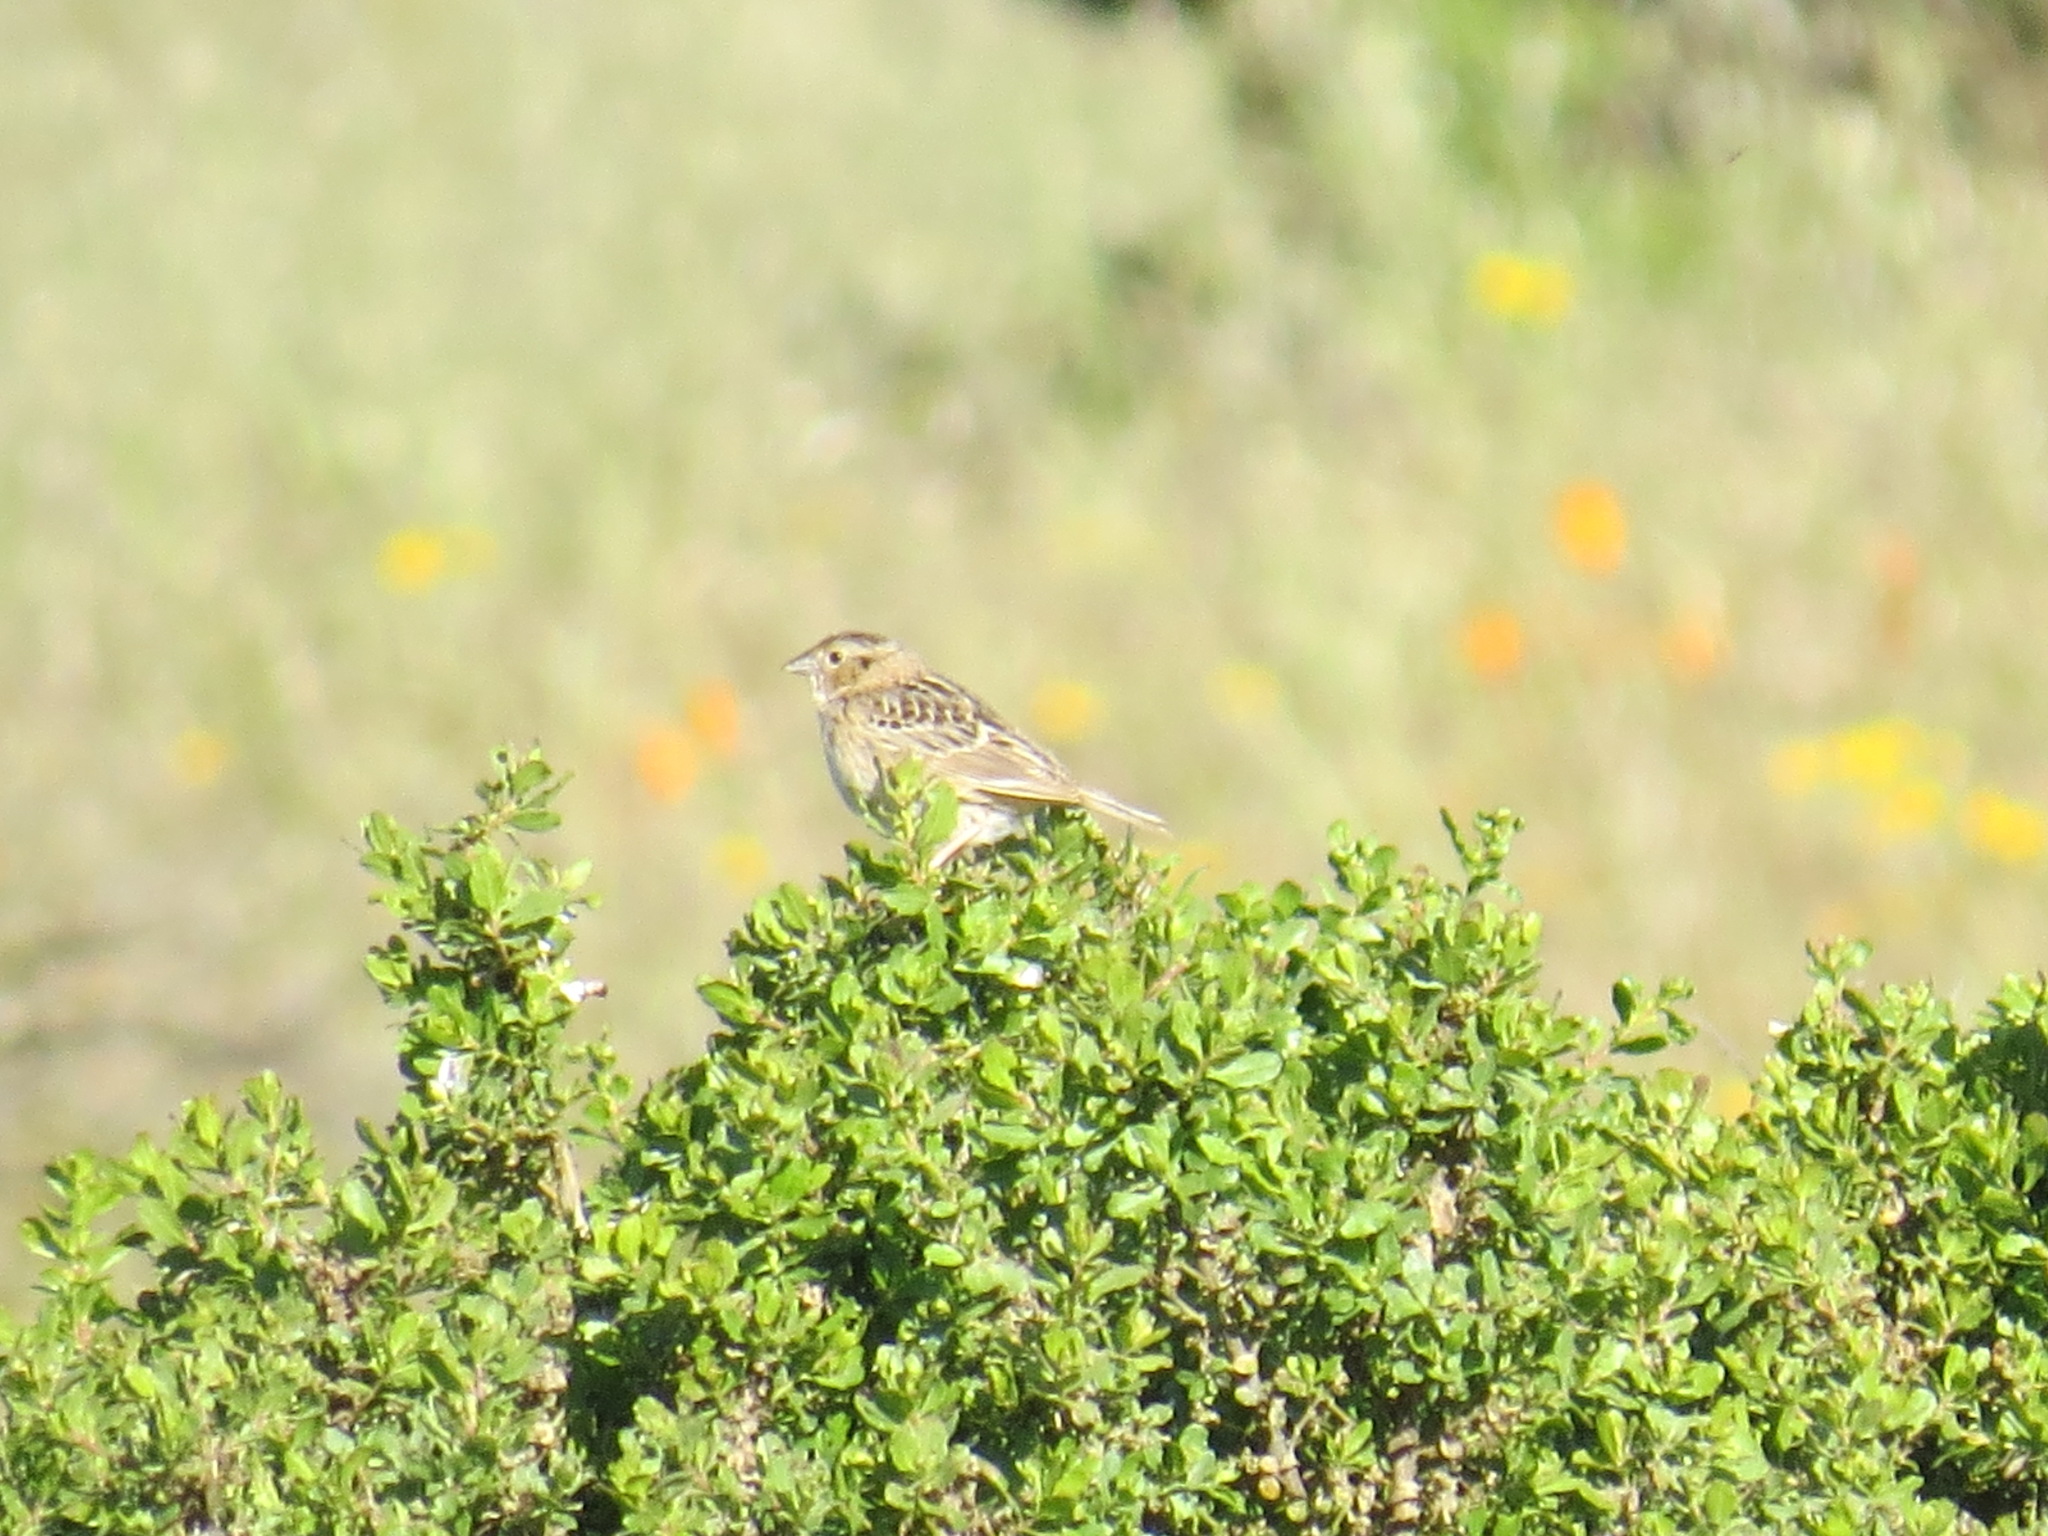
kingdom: Animalia
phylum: Chordata
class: Aves
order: Passeriformes
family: Passerellidae
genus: Ammodramus
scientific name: Ammodramus savannarum
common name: Grasshopper sparrow
